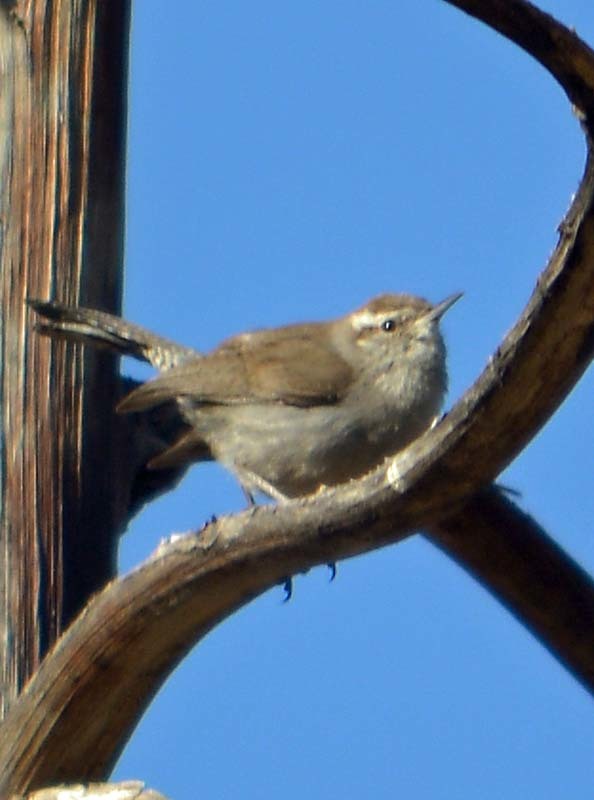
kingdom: Animalia
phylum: Chordata
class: Aves
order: Passeriformes
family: Troglodytidae
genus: Thryomanes
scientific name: Thryomanes bewickii
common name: Bewick's wren
